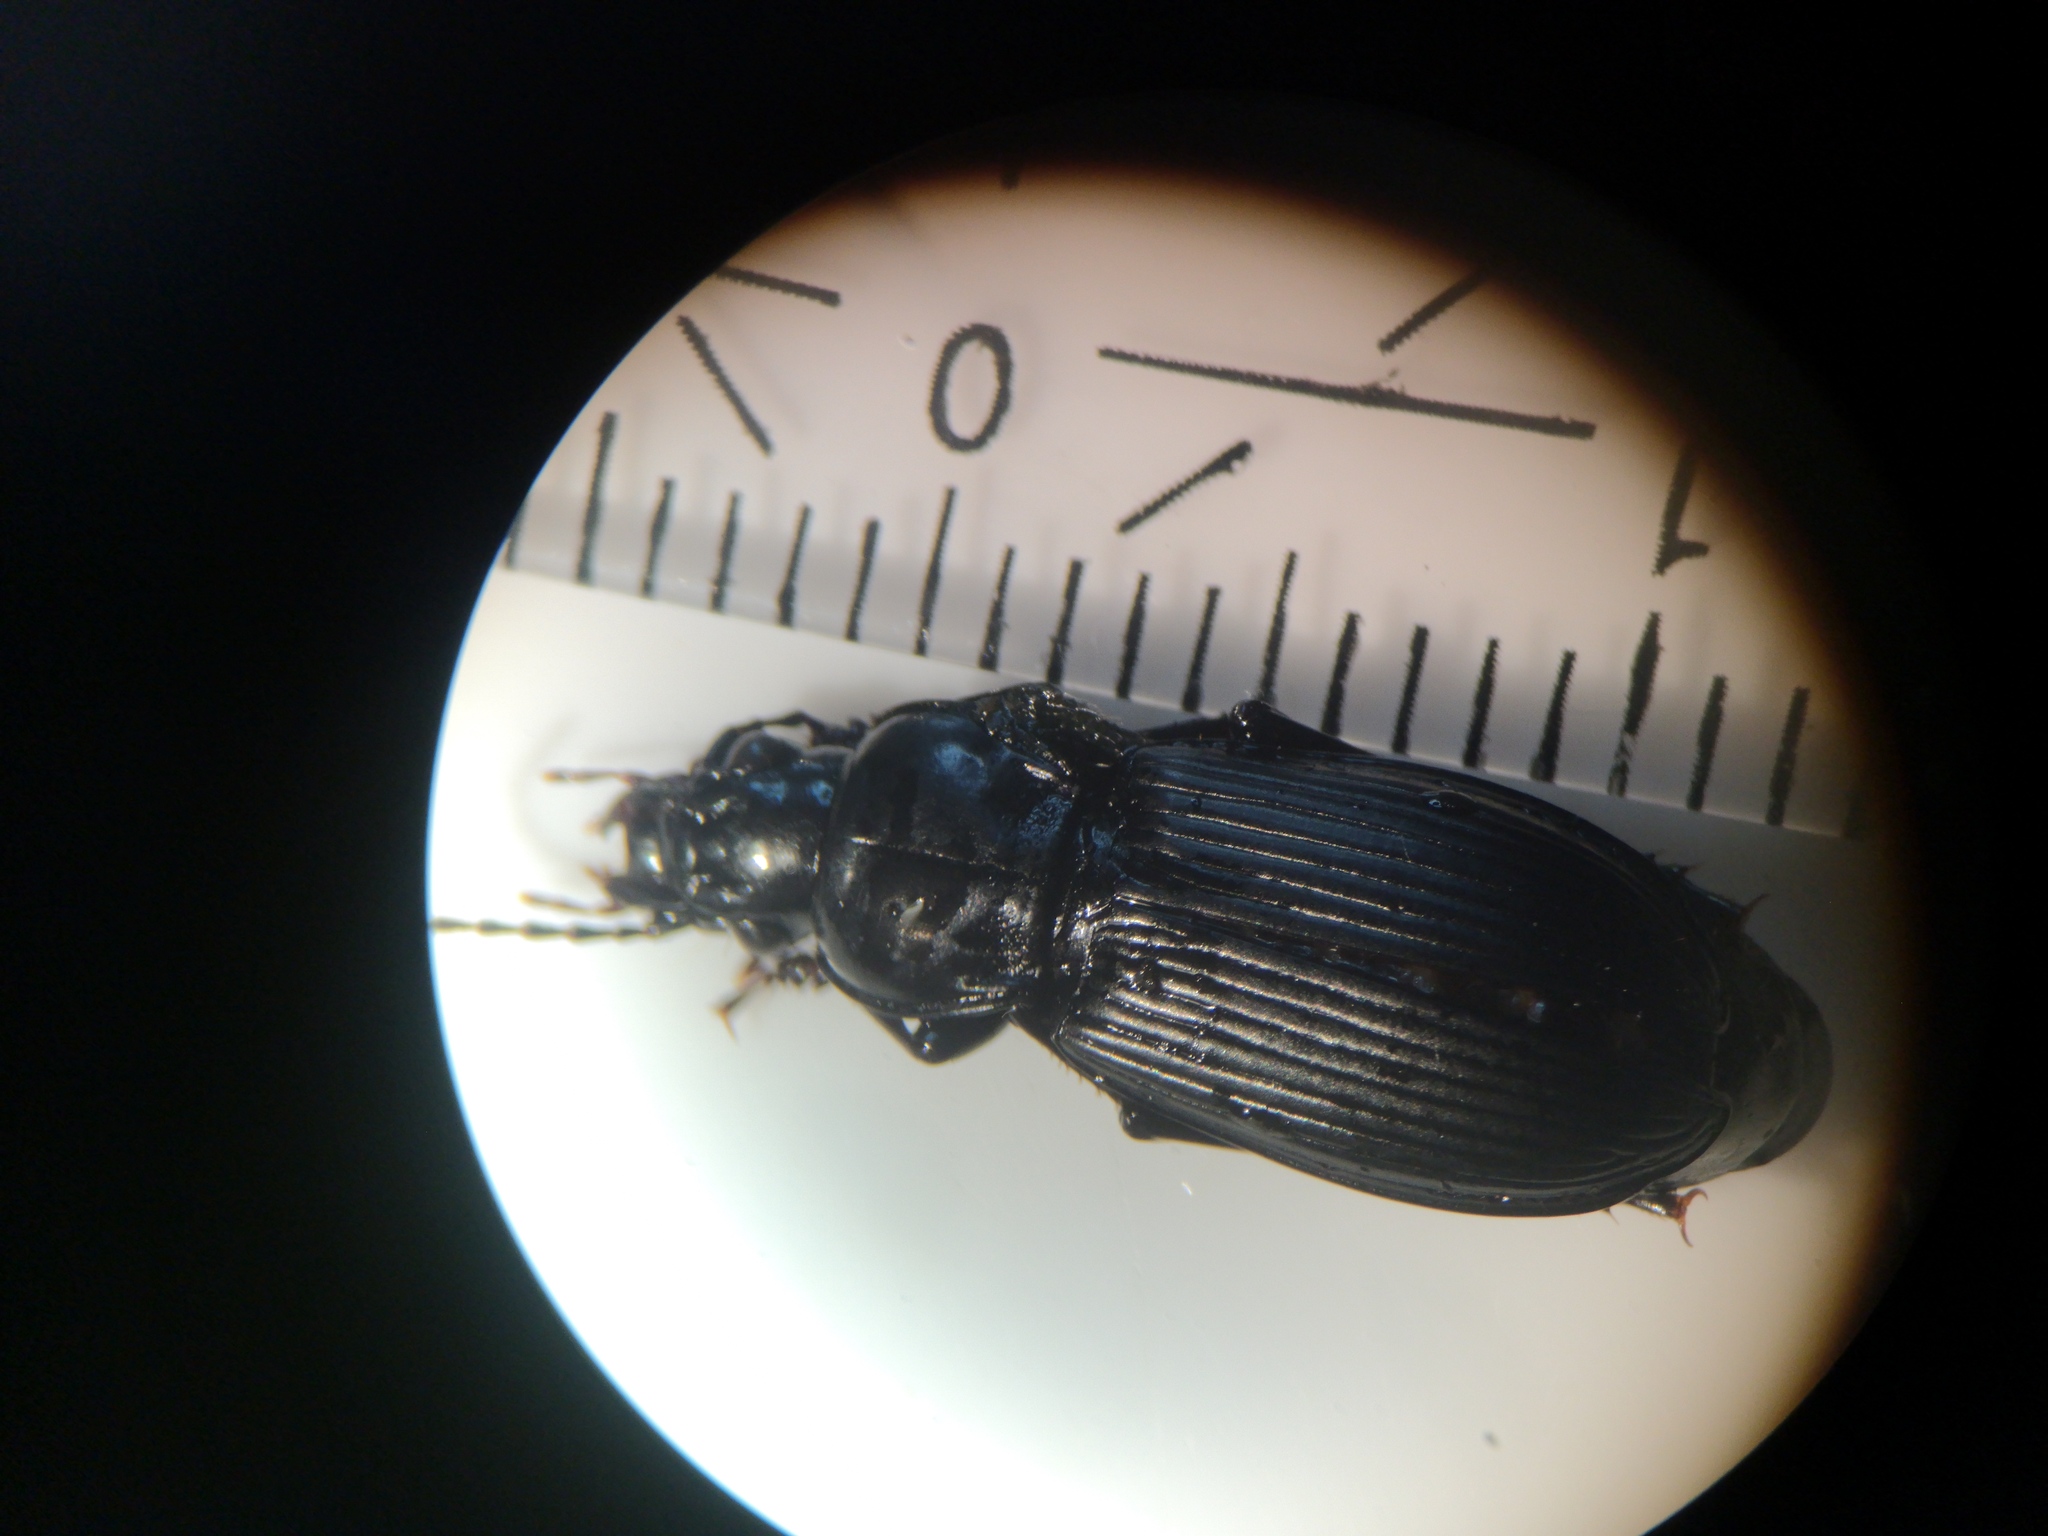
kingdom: Animalia
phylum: Arthropoda
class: Insecta
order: Coleoptera
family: Carabidae
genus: Pterostichus
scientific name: Pterostichus melanarius
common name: European dark harp ground beetle
